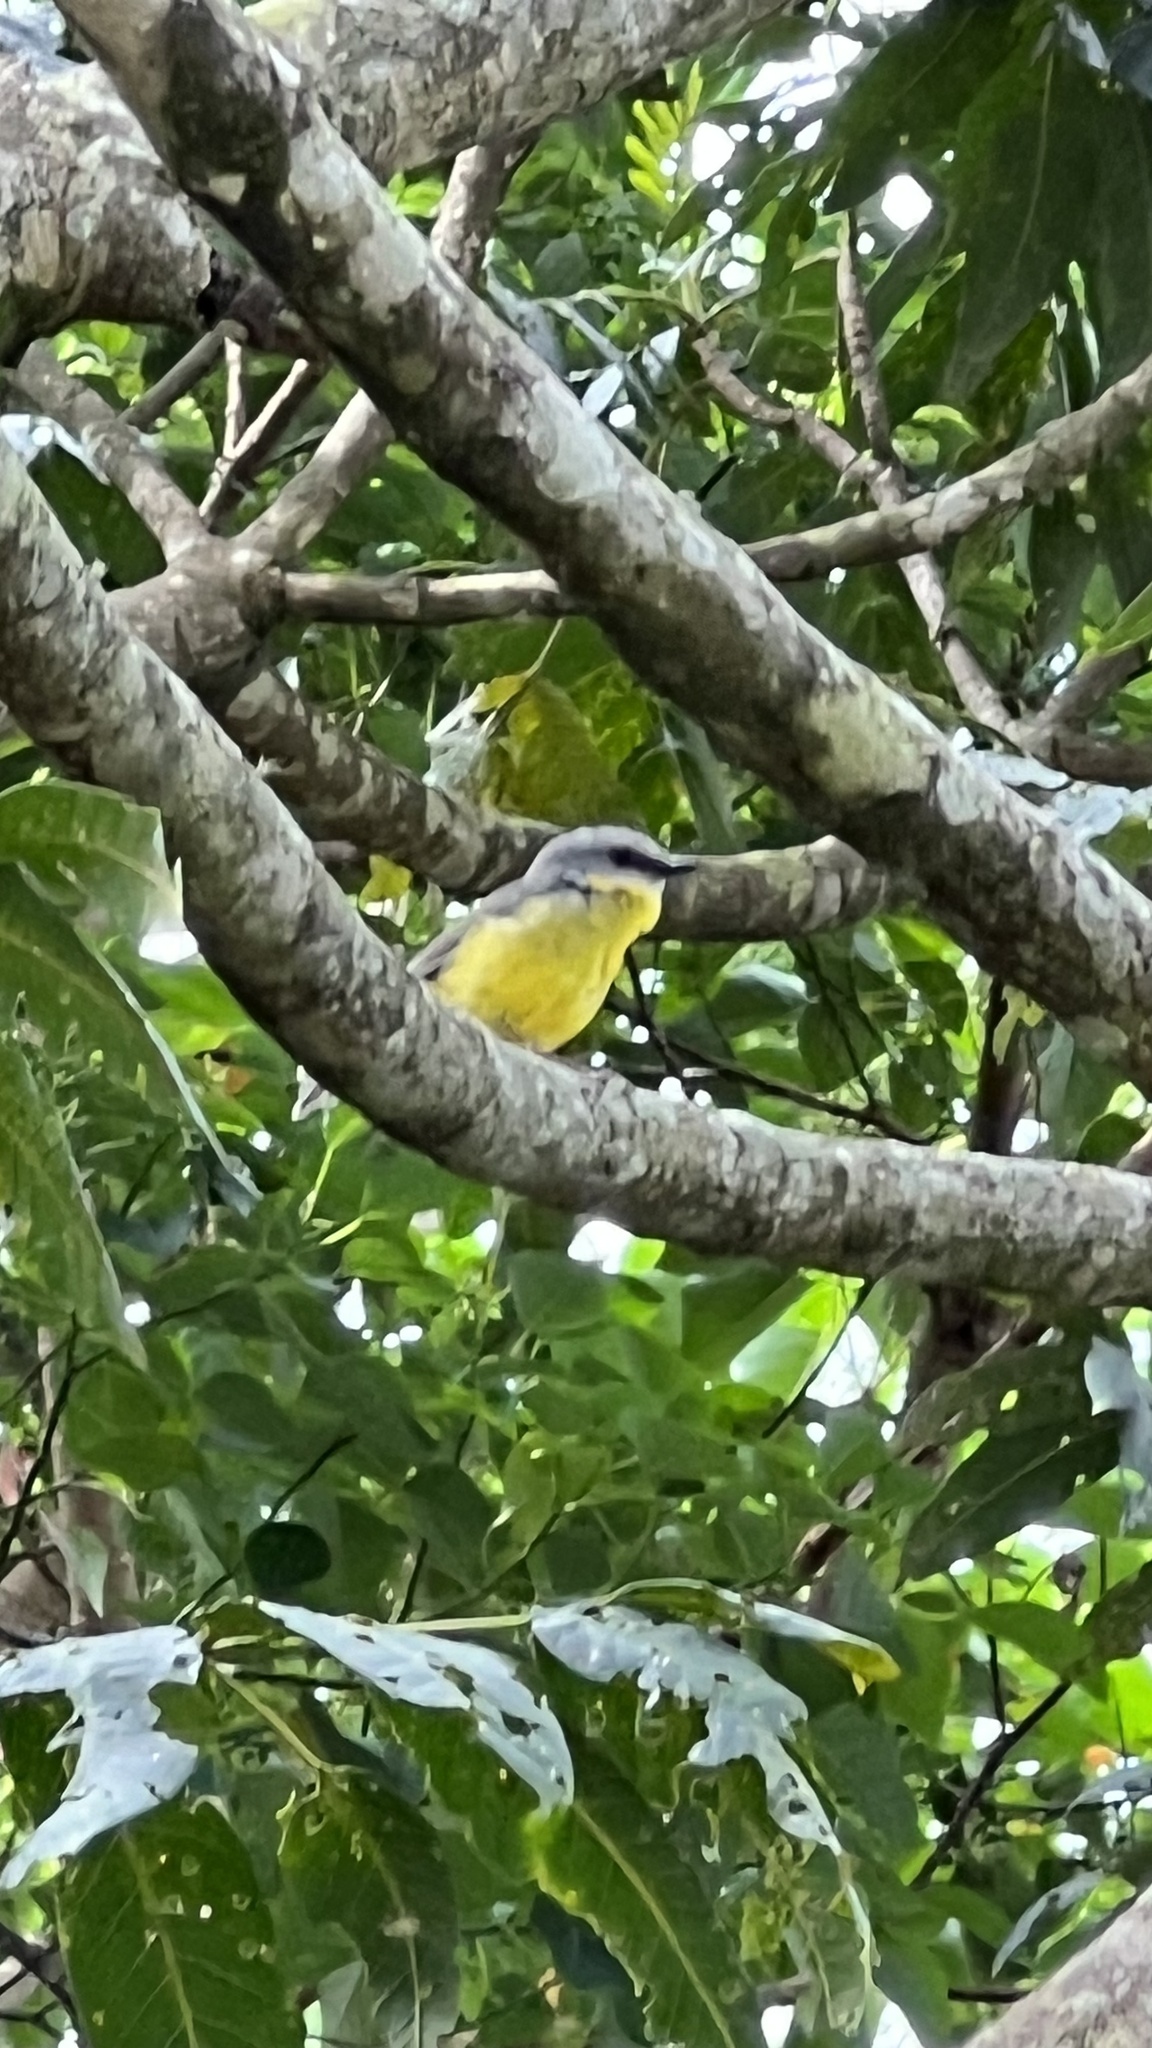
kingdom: Animalia
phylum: Chordata
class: Aves
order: Passeriformes
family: Petroicidae
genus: Eopsaltria
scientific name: Eopsaltria australis
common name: Eastern yellow robin
